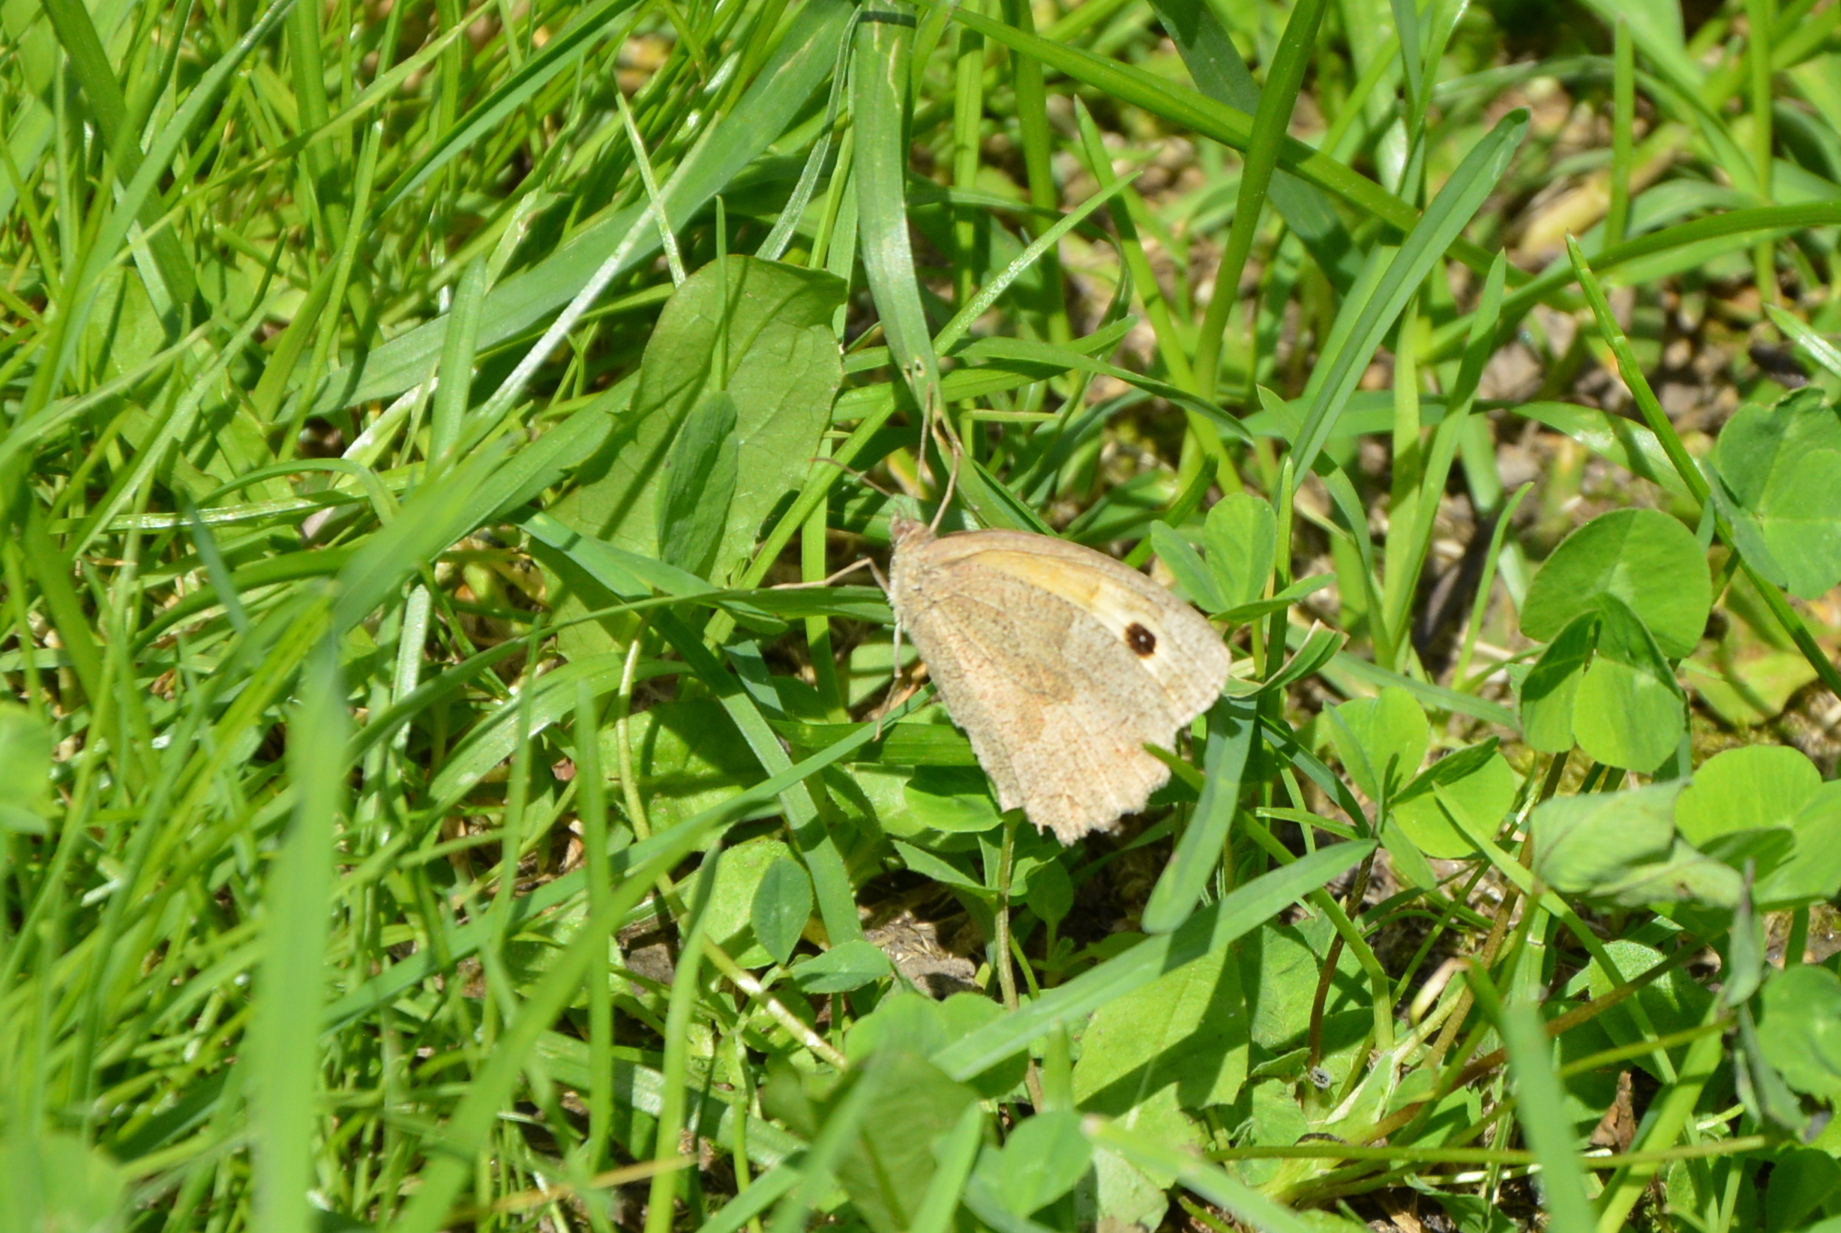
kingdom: Animalia
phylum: Arthropoda
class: Insecta
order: Lepidoptera
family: Nymphalidae
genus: Maniola
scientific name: Maniola jurtina
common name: Meadow brown
